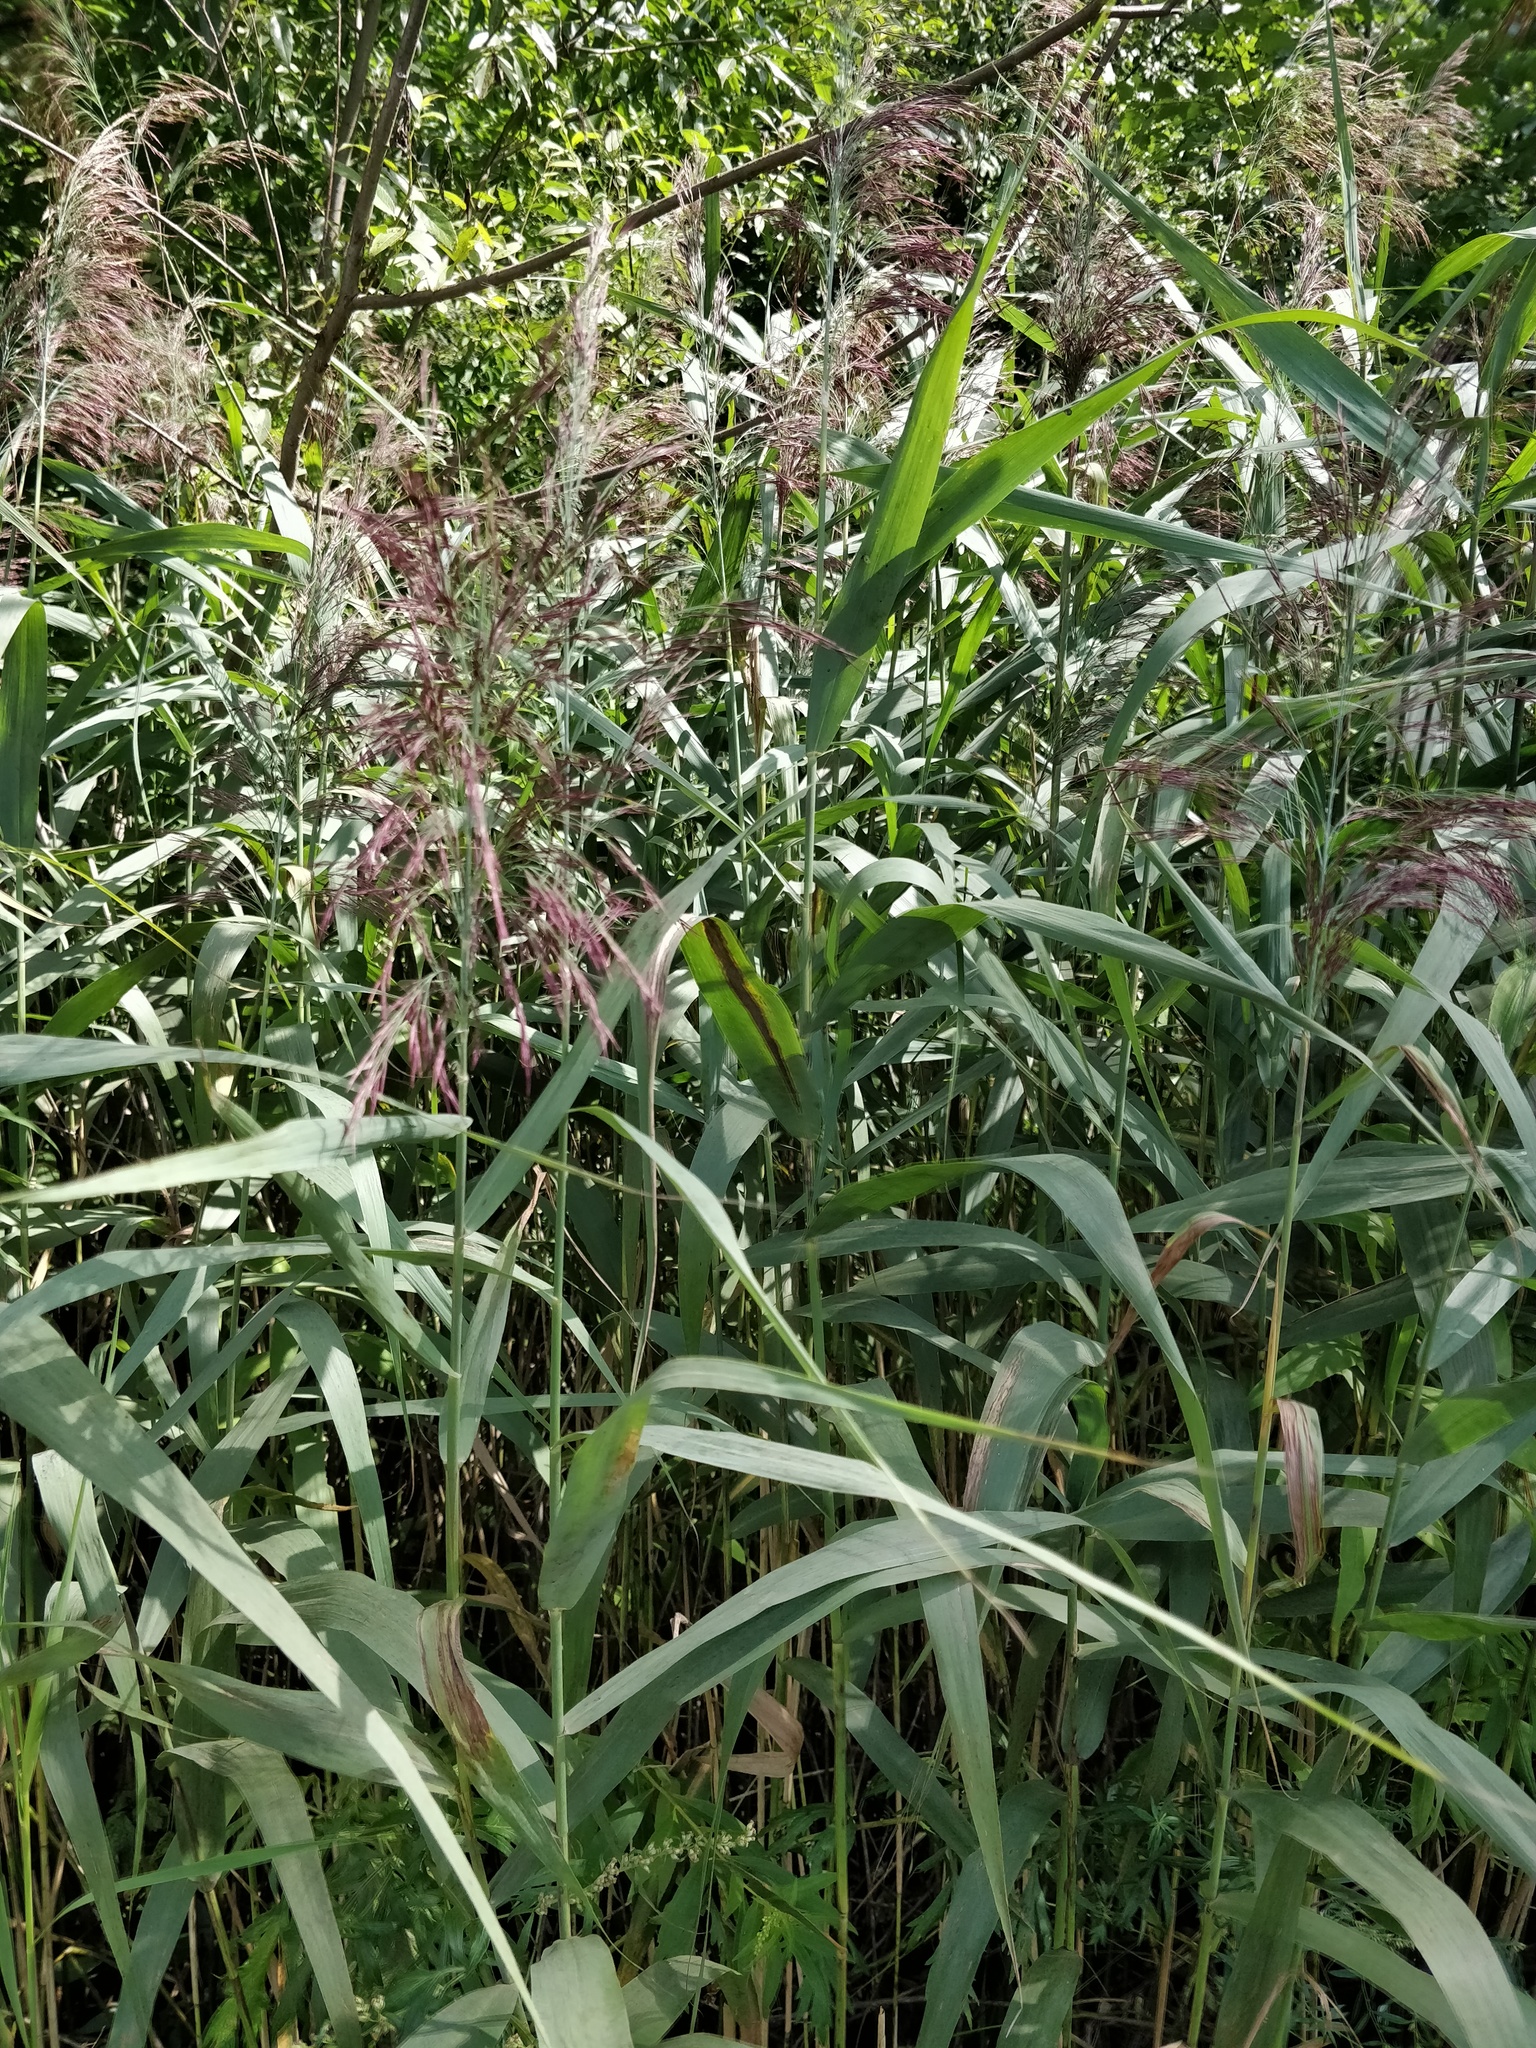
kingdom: Plantae
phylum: Tracheophyta
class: Liliopsida
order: Poales
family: Poaceae
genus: Phragmites
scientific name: Phragmites australis
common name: Common reed
